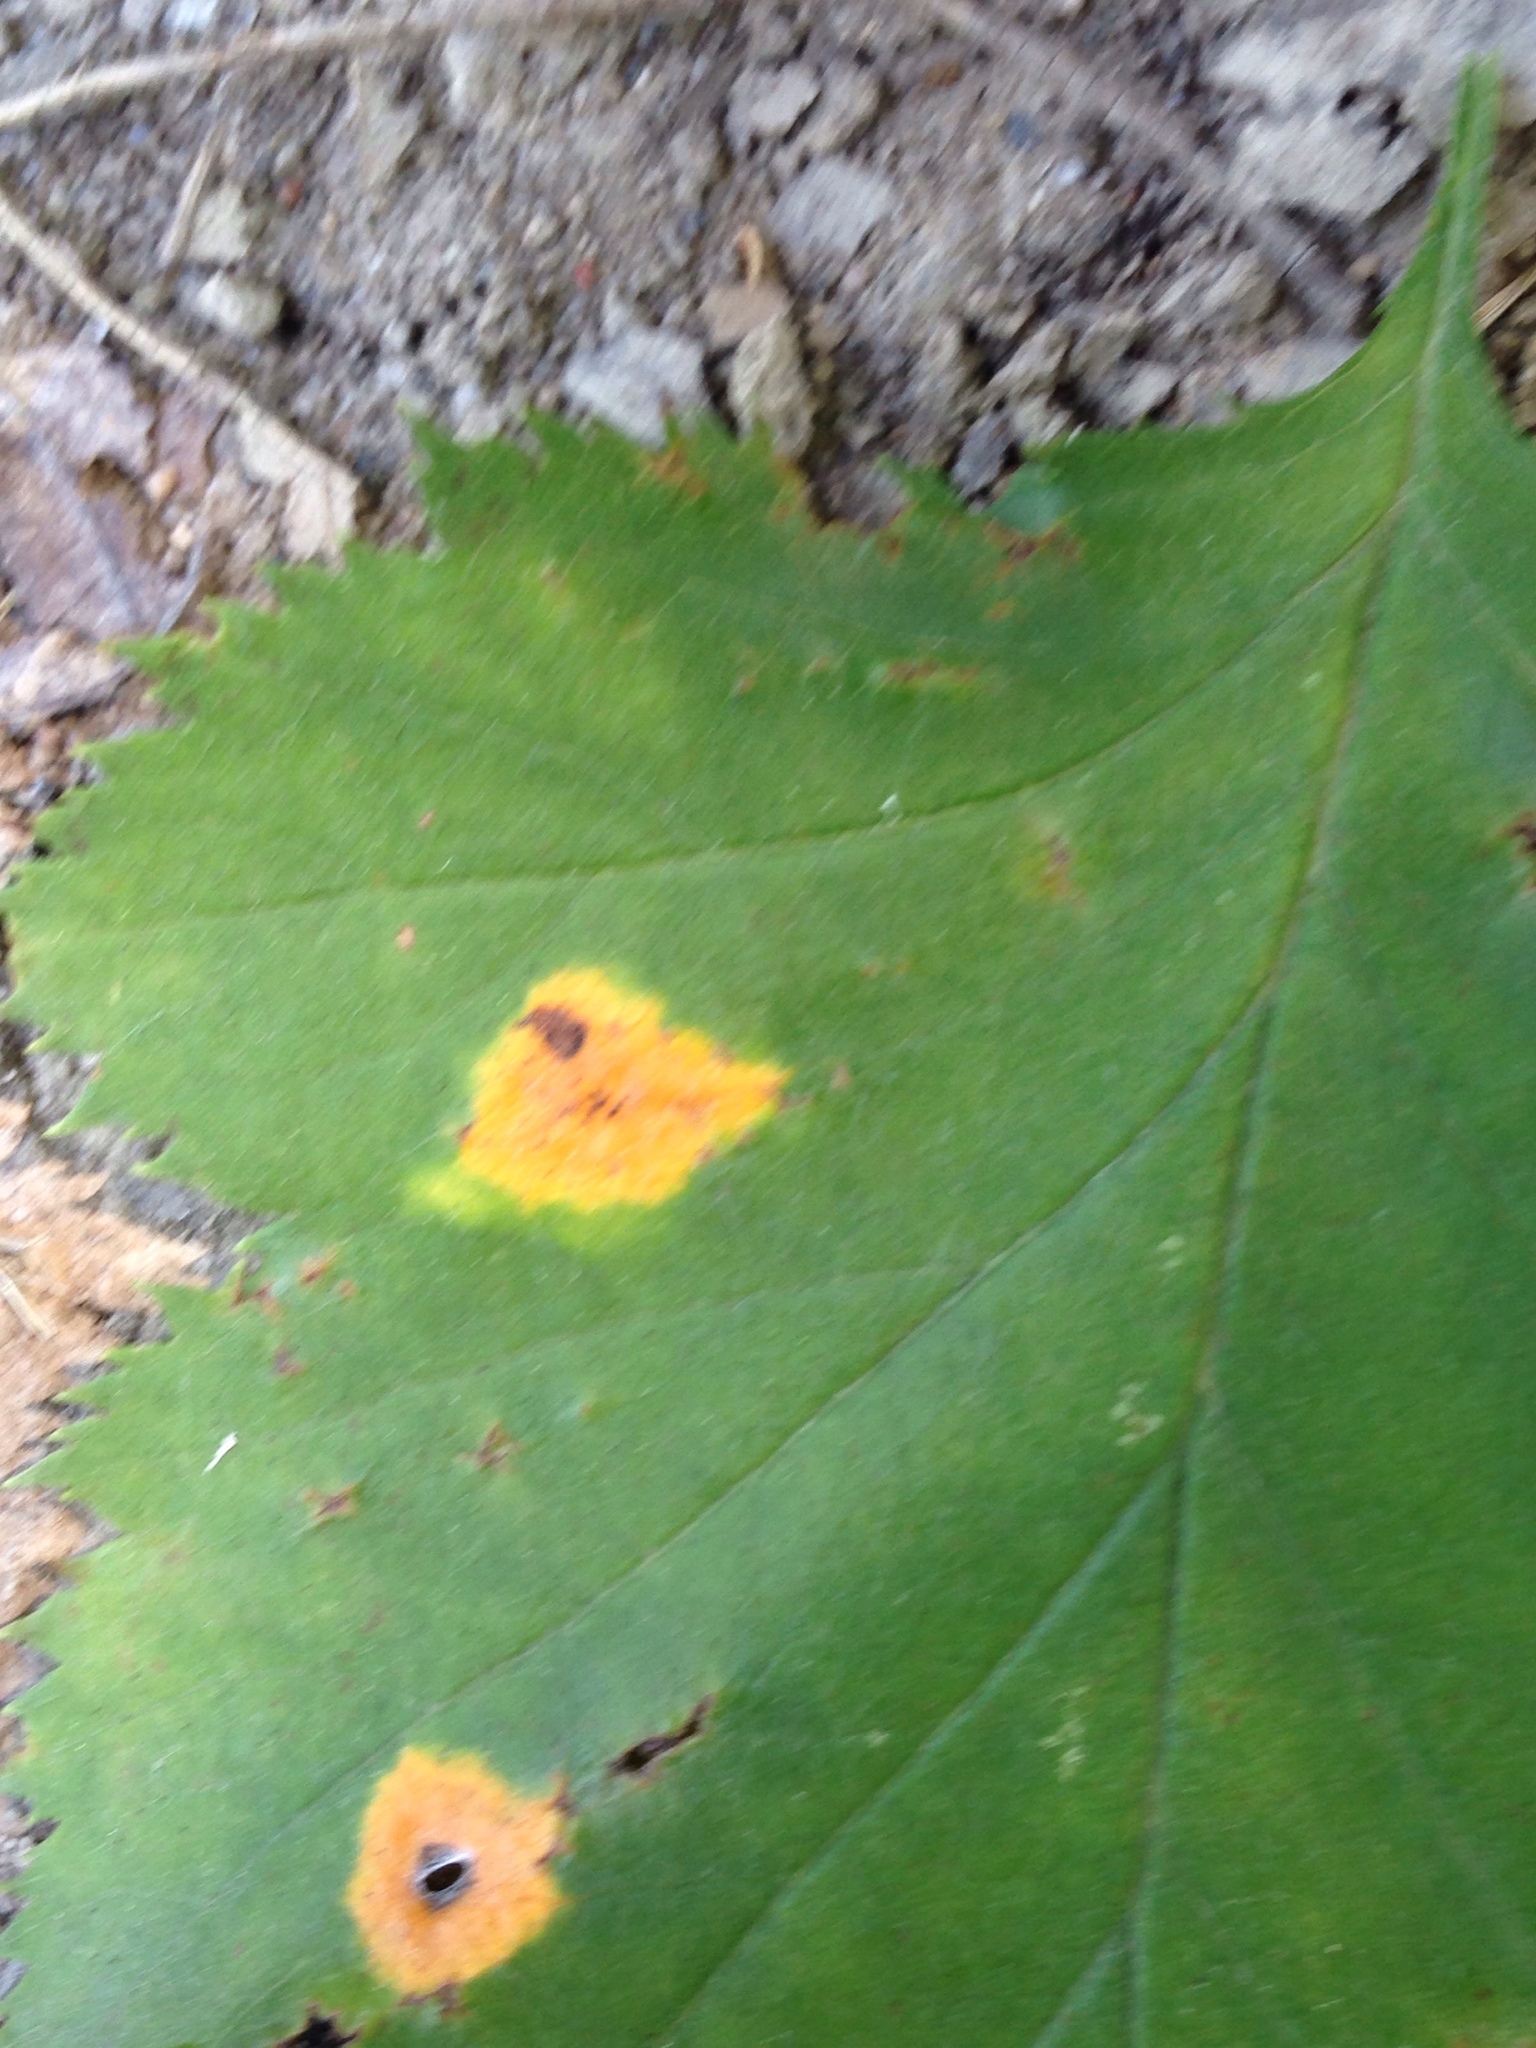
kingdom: Fungi
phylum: Basidiomycota
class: Pucciniomycetes
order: Pucciniales
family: Gymnosporangiaceae
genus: Gymnosporangium
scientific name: Gymnosporangium globosum
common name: Juniper-hawthorn rust
